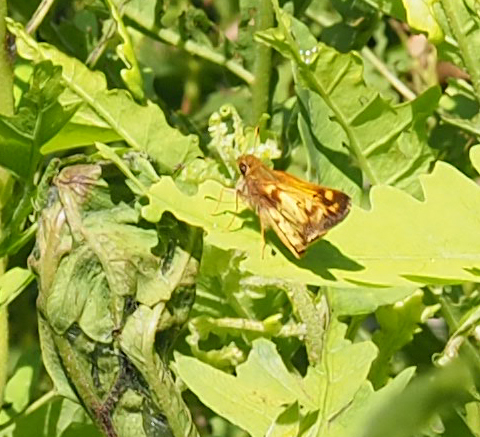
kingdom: Animalia
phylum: Arthropoda
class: Insecta
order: Lepidoptera
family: Hesperiidae
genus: Lon
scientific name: Lon zabulon
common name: Zabulon skipper
